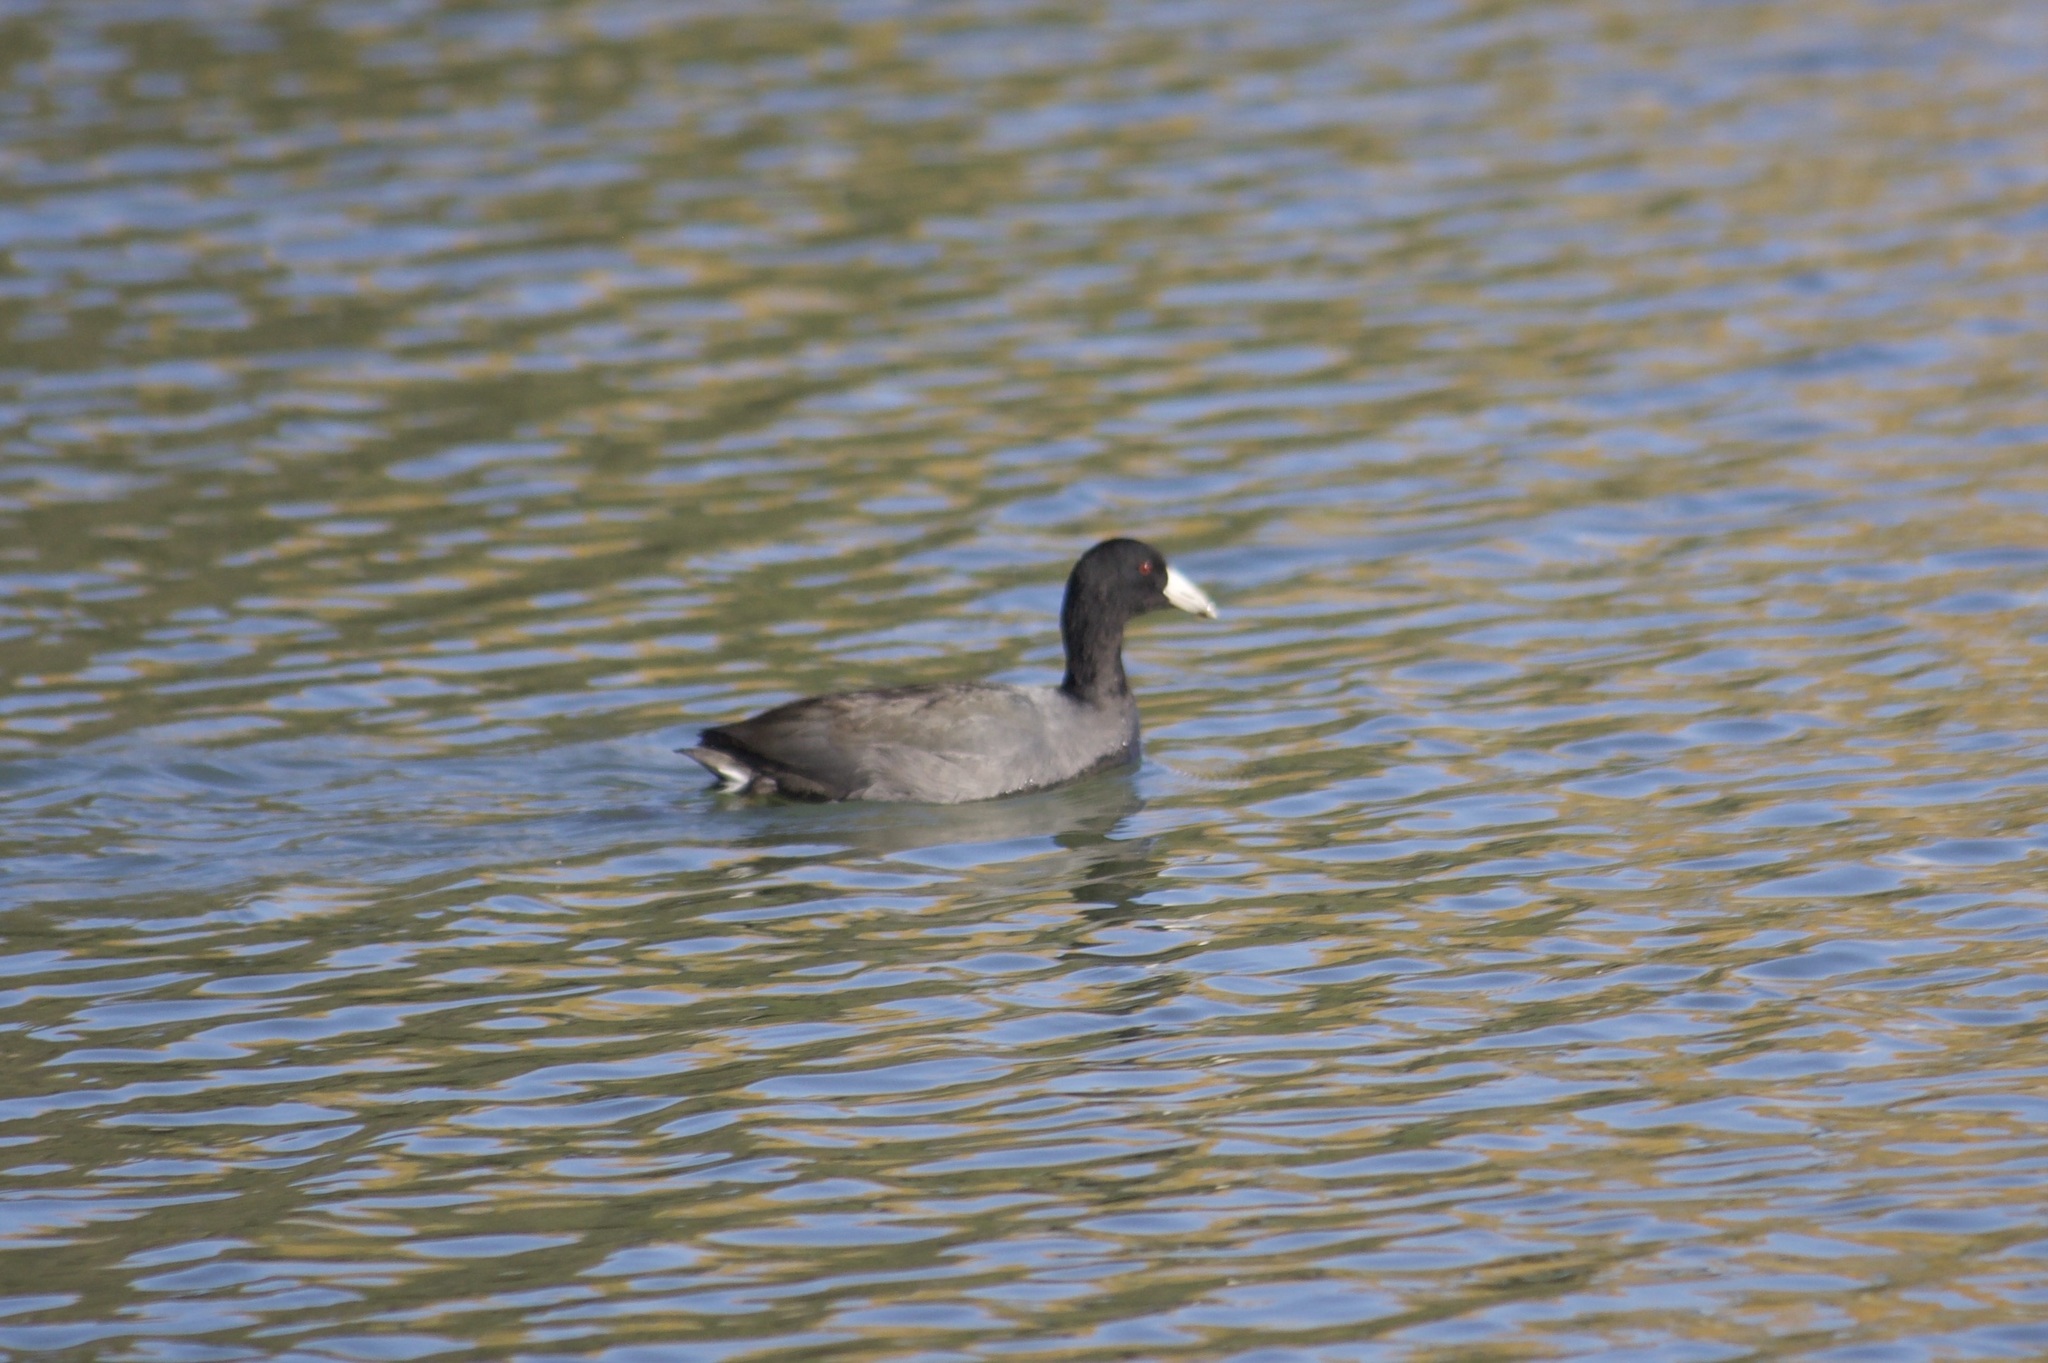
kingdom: Animalia
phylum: Chordata
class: Aves
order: Gruiformes
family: Rallidae
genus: Fulica
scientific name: Fulica americana
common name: American coot
